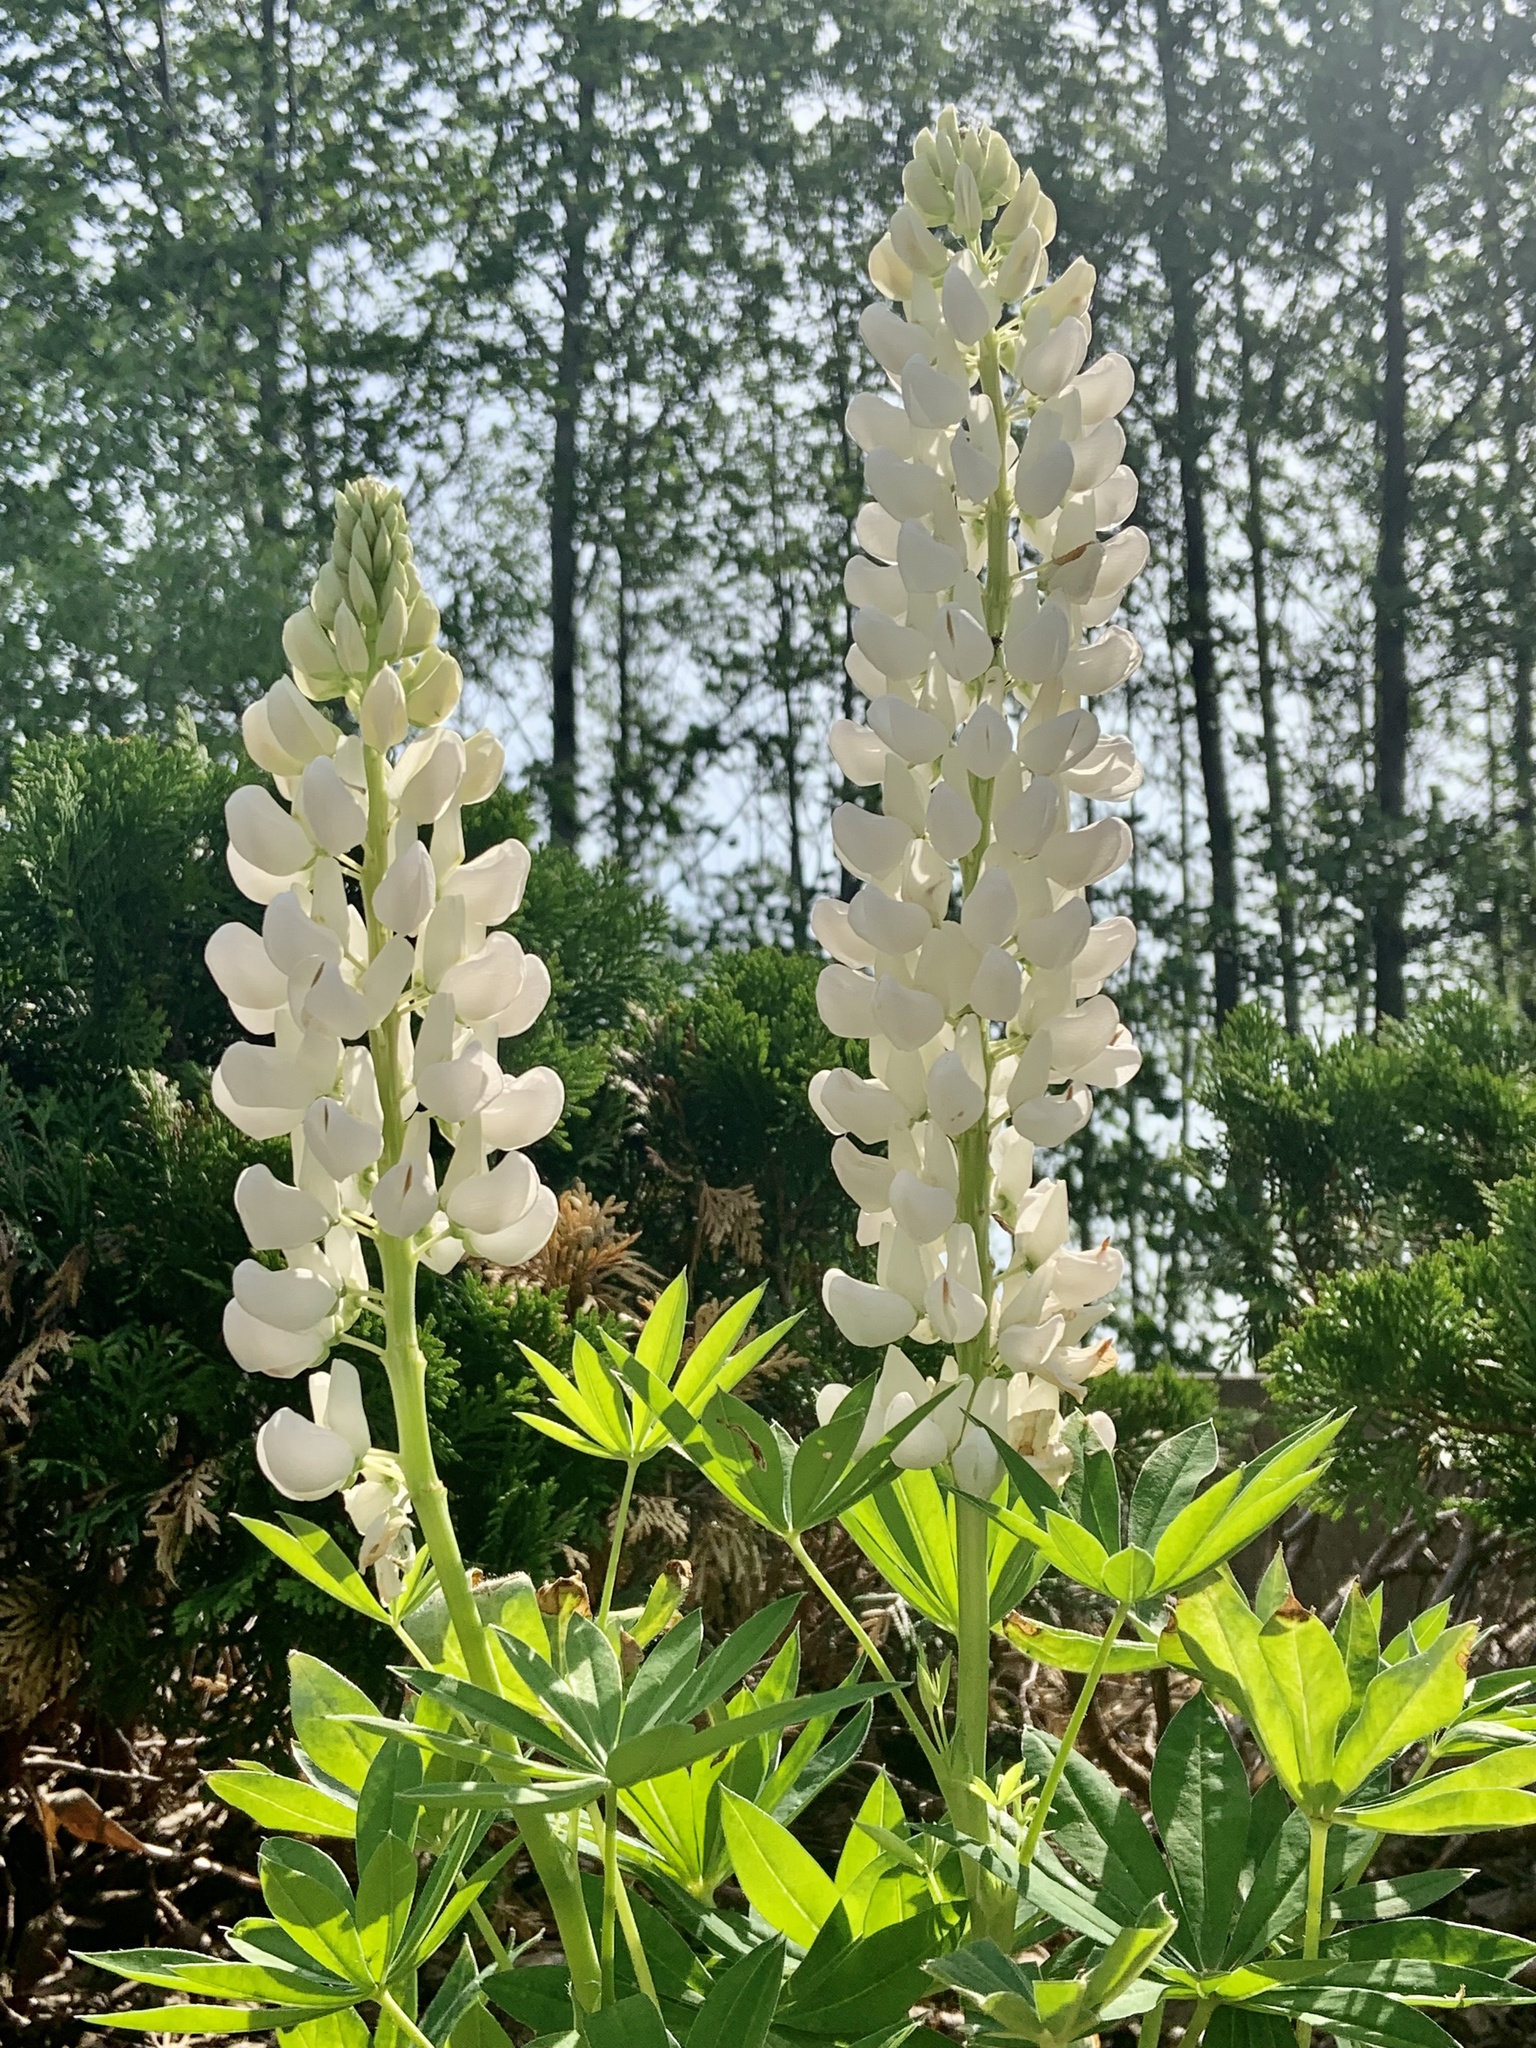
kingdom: Plantae
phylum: Tracheophyta
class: Magnoliopsida
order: Fabales
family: Fabaceae
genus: Lupinus
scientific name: Lupinus polyphyllus
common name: Garden lupin
